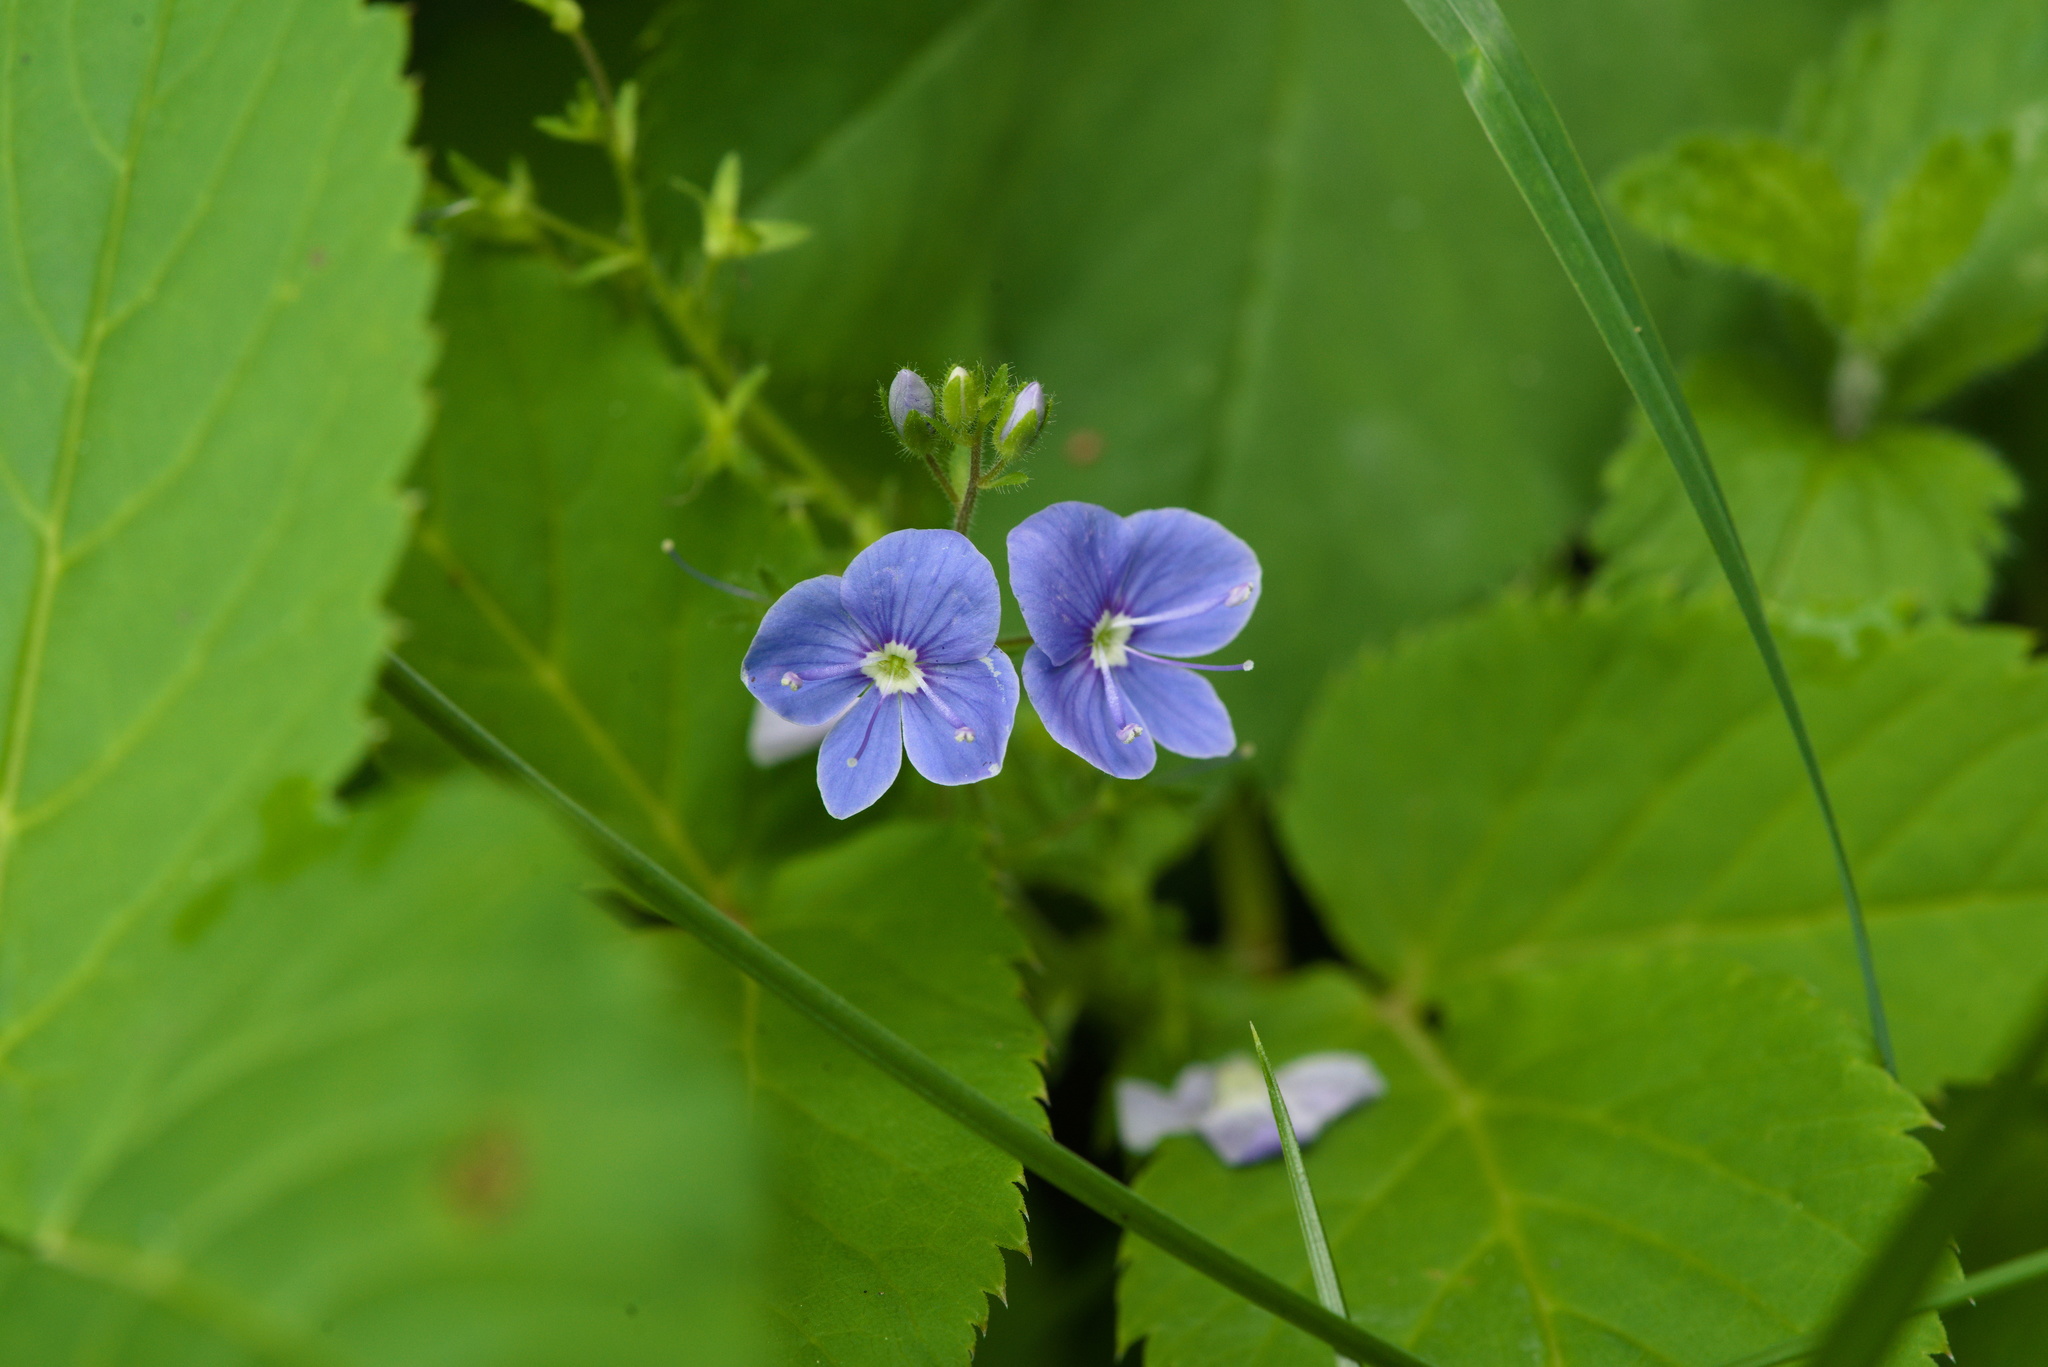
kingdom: Plantae
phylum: Tracheophyta
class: Magnoliopsida
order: Lamiales
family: Plantaginaceae
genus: Veronica
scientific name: Veronica chamaedrys
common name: Germander speedwell
